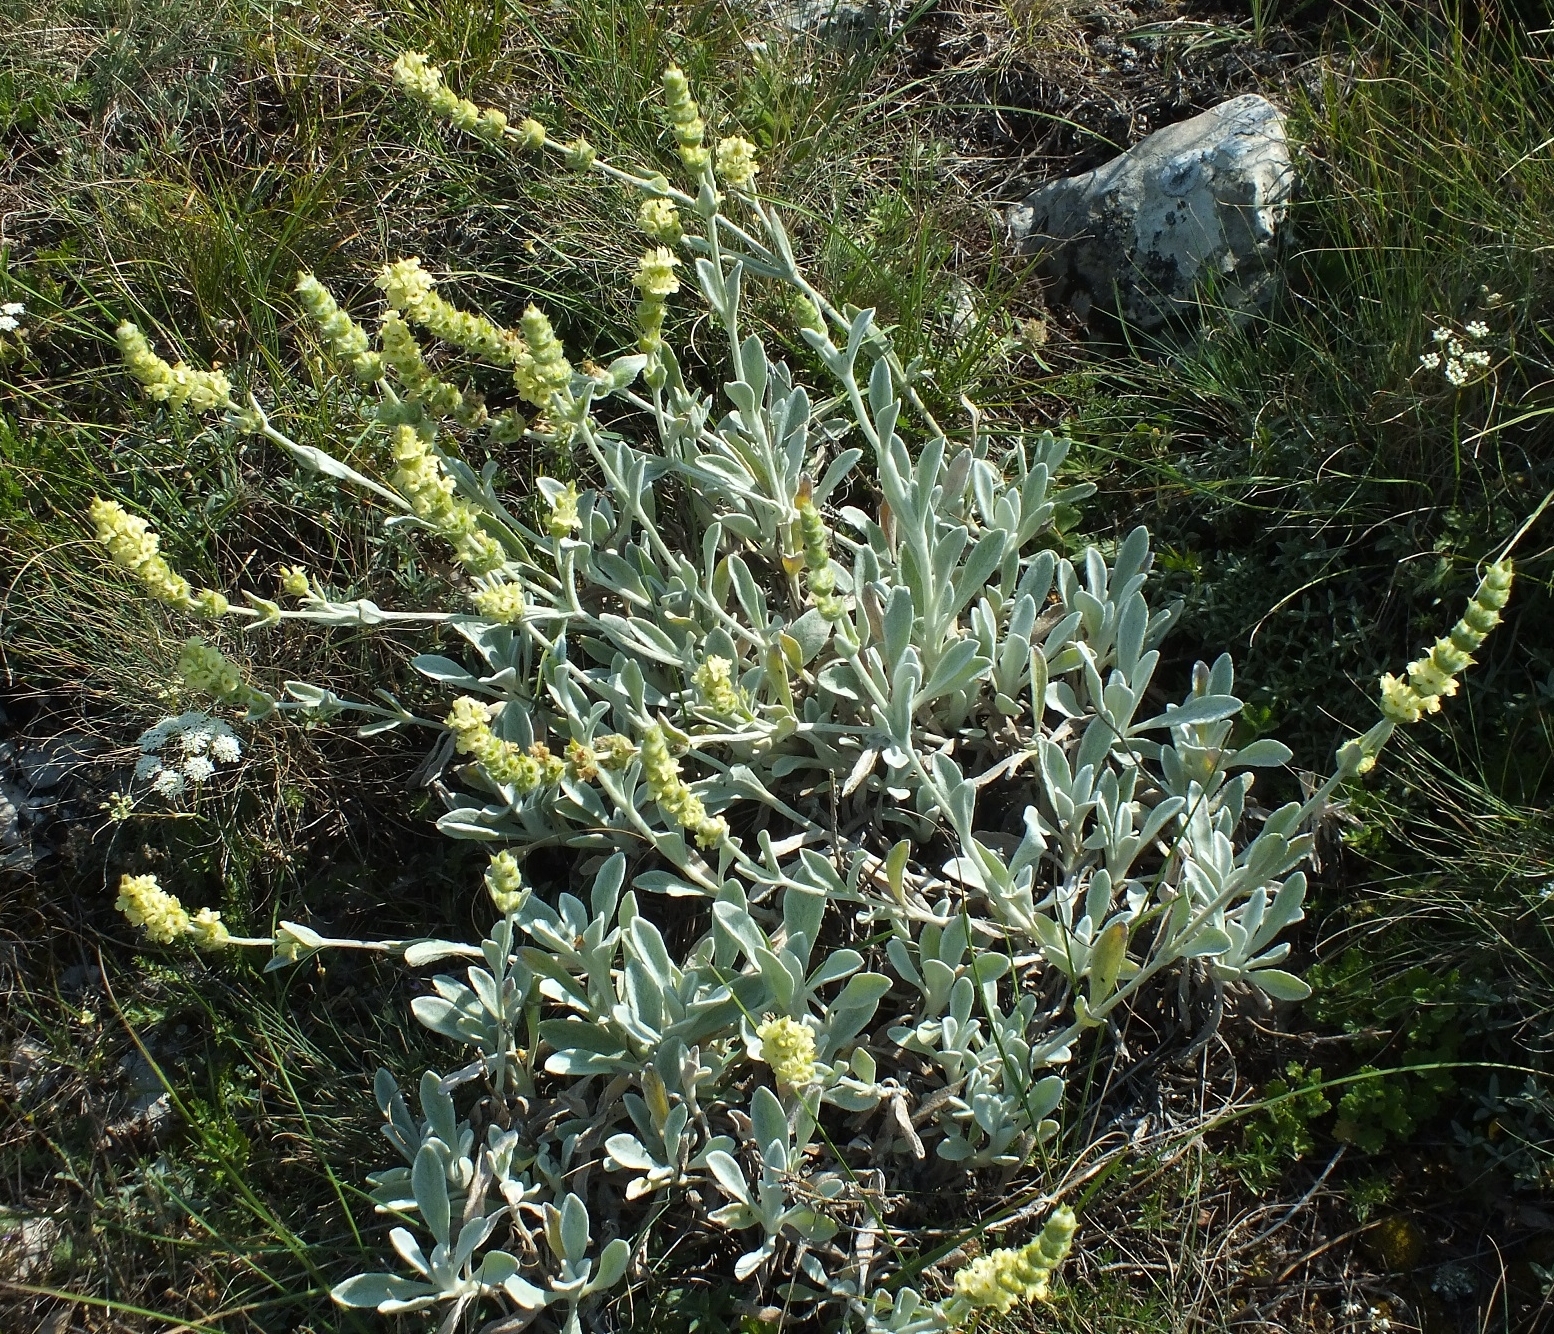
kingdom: Plantae
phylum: Tracheophyta
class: Magnoliopsida
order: Lamiales
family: Lamiaceae
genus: Sideritis
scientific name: Sideritis taurica
